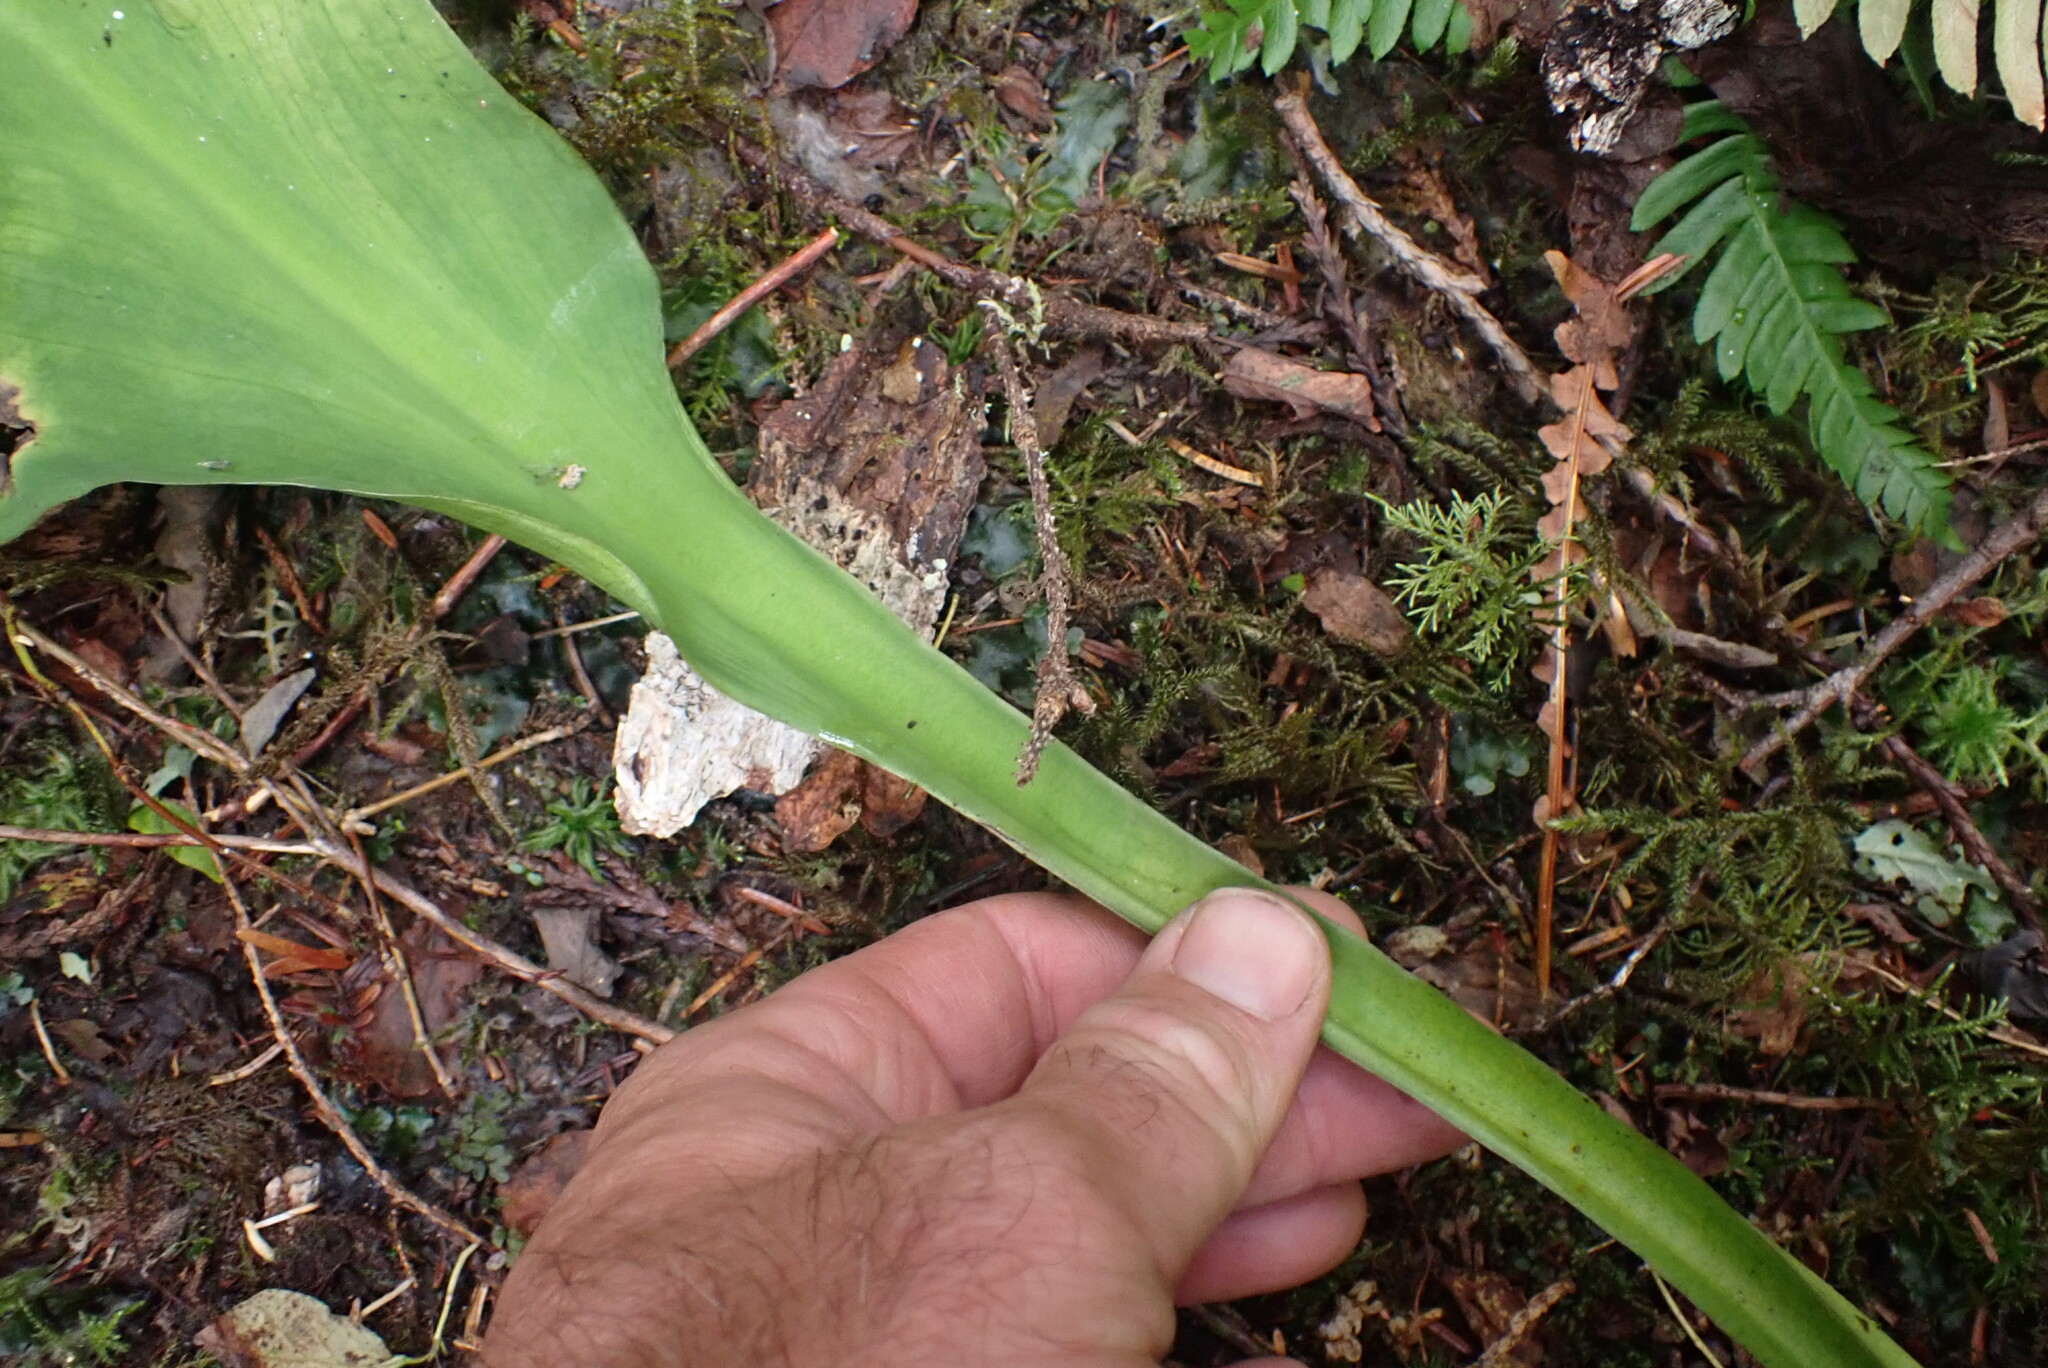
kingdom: Plantae
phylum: Tracheophyta
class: Liliopsida
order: Alismatales
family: Araceae
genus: Lysichiton
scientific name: Lysichiton americanus
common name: American skunk cabbage
